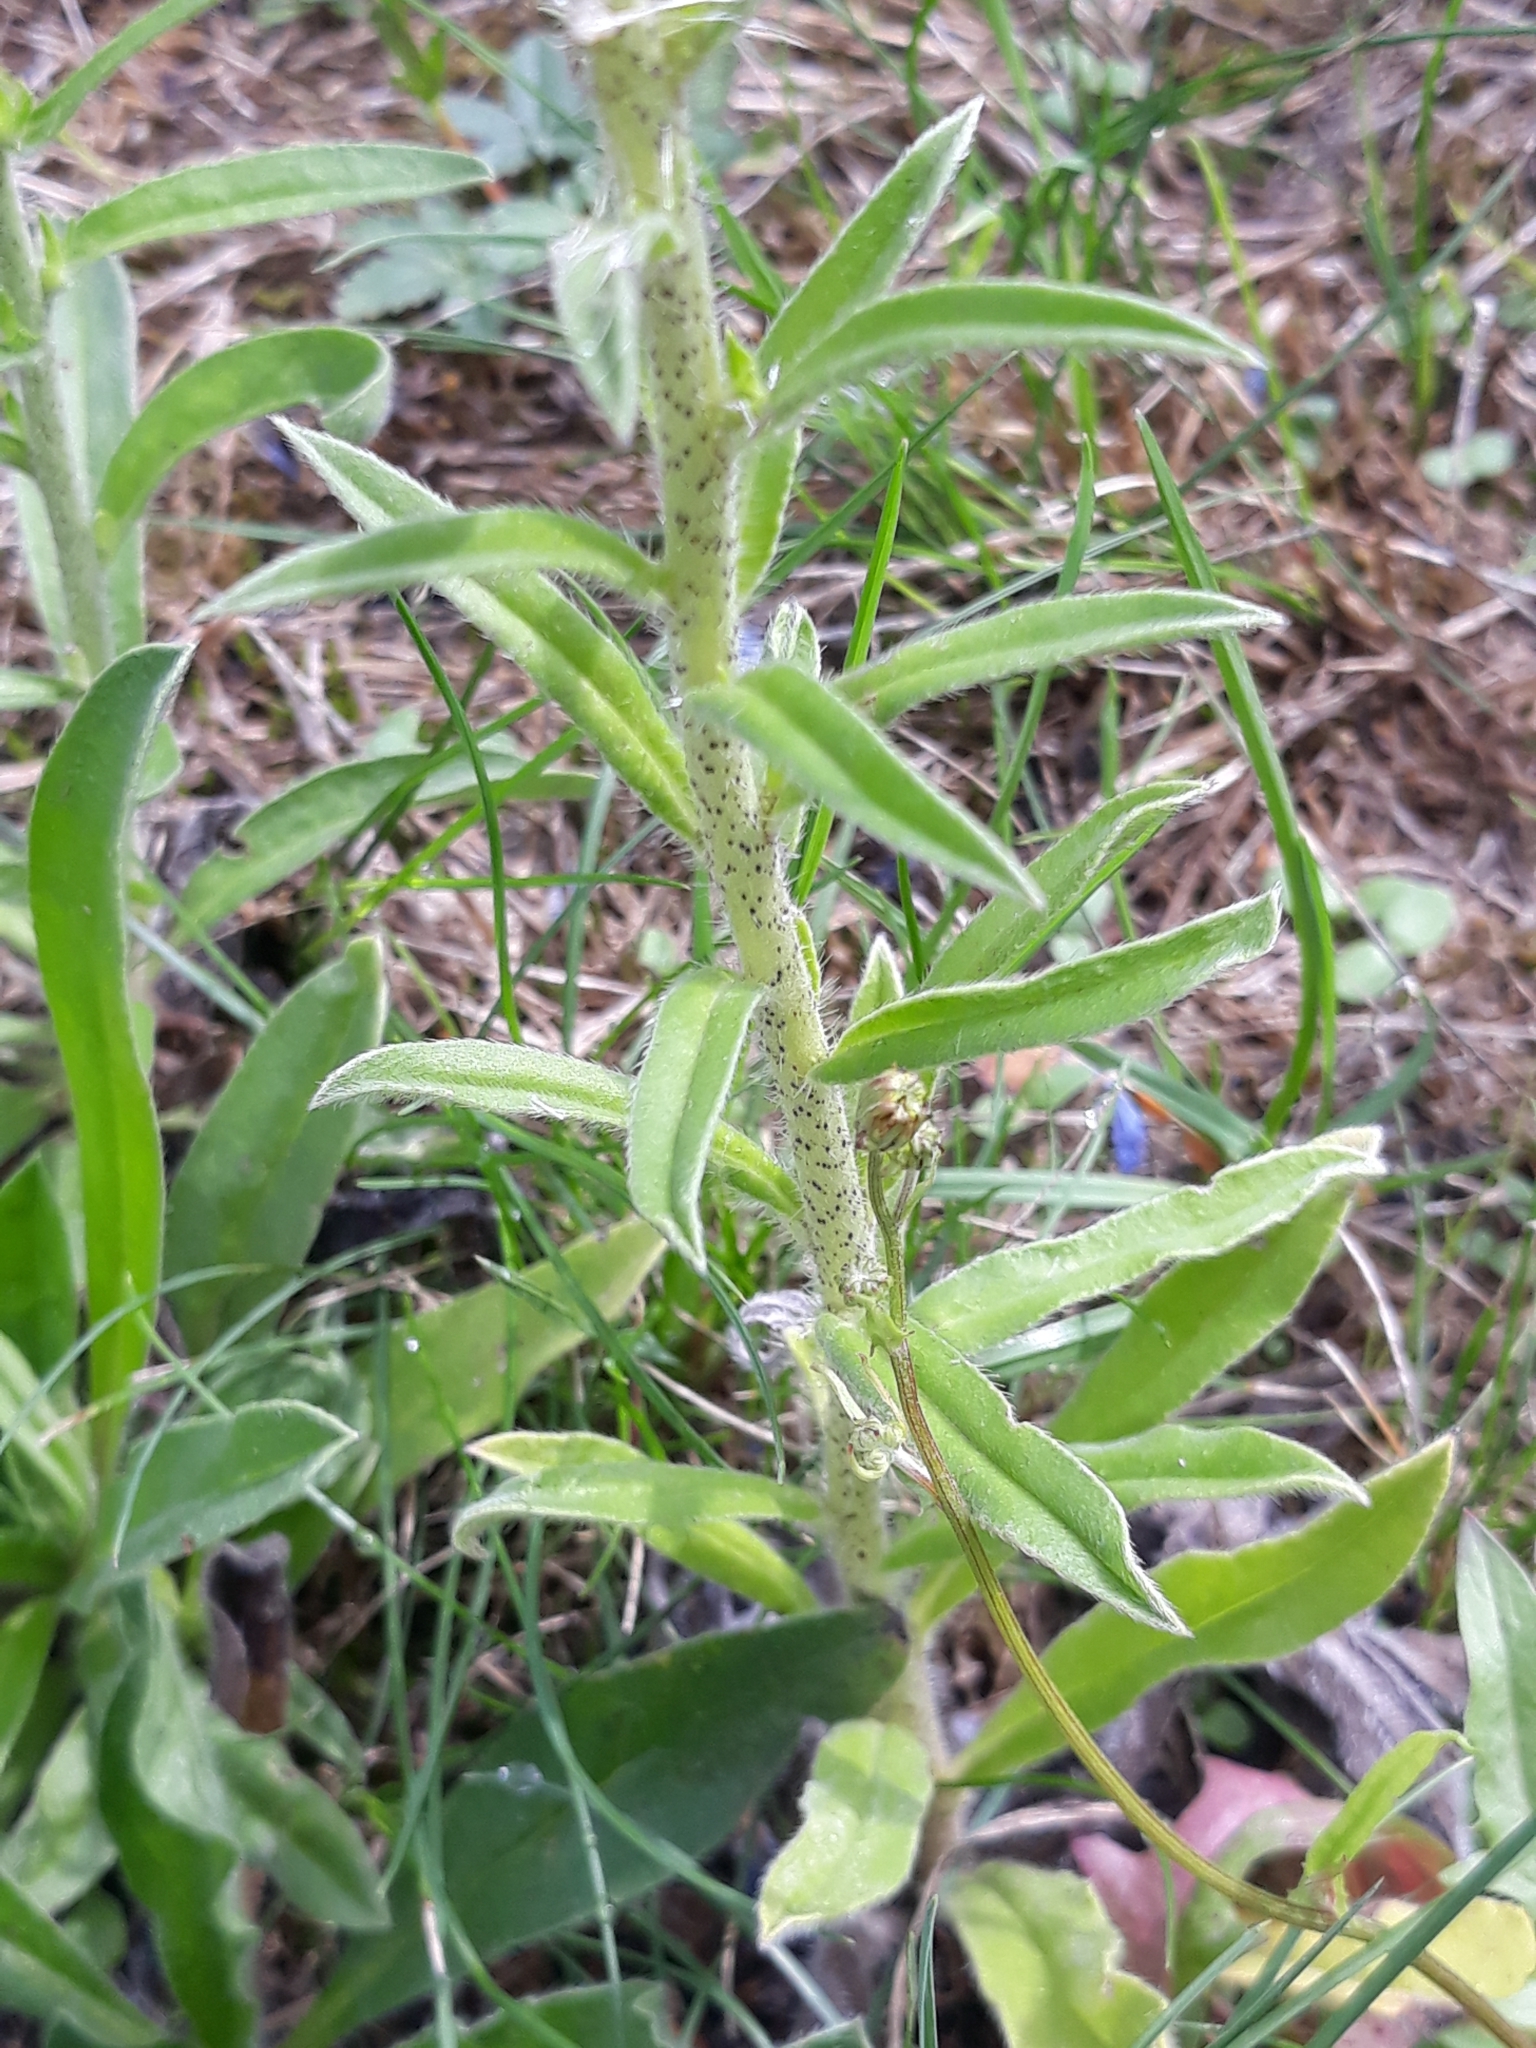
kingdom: Plantae
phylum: Tracheophyta
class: Magnoliopsida
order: Boraginales
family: Boraginaceae
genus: Echium
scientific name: Echium vulgare
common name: Common viper's bugloss
